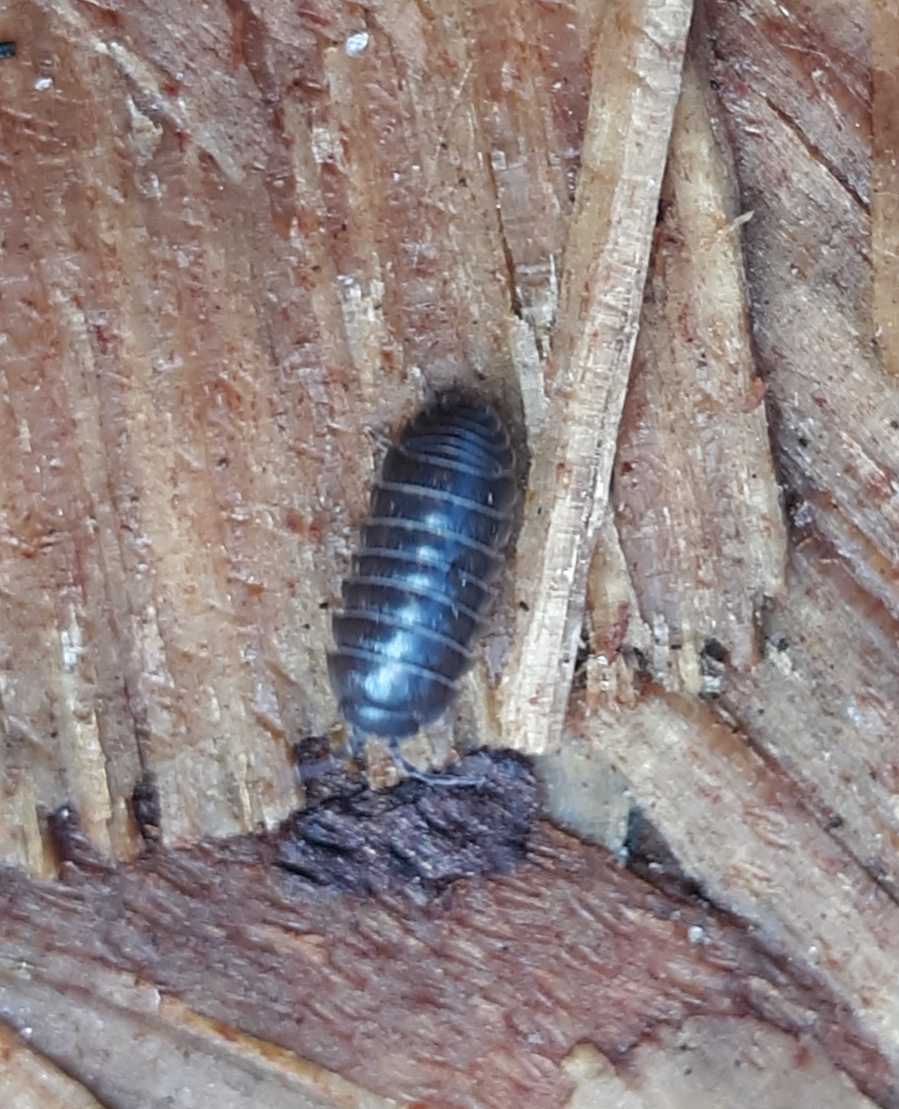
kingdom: Animalia
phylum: Arthropoda
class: Malacostraca
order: Isopoda
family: Armadillidiidae
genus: Armadillidium
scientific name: Armadillidium vulgare
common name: Common pill woodlouse
